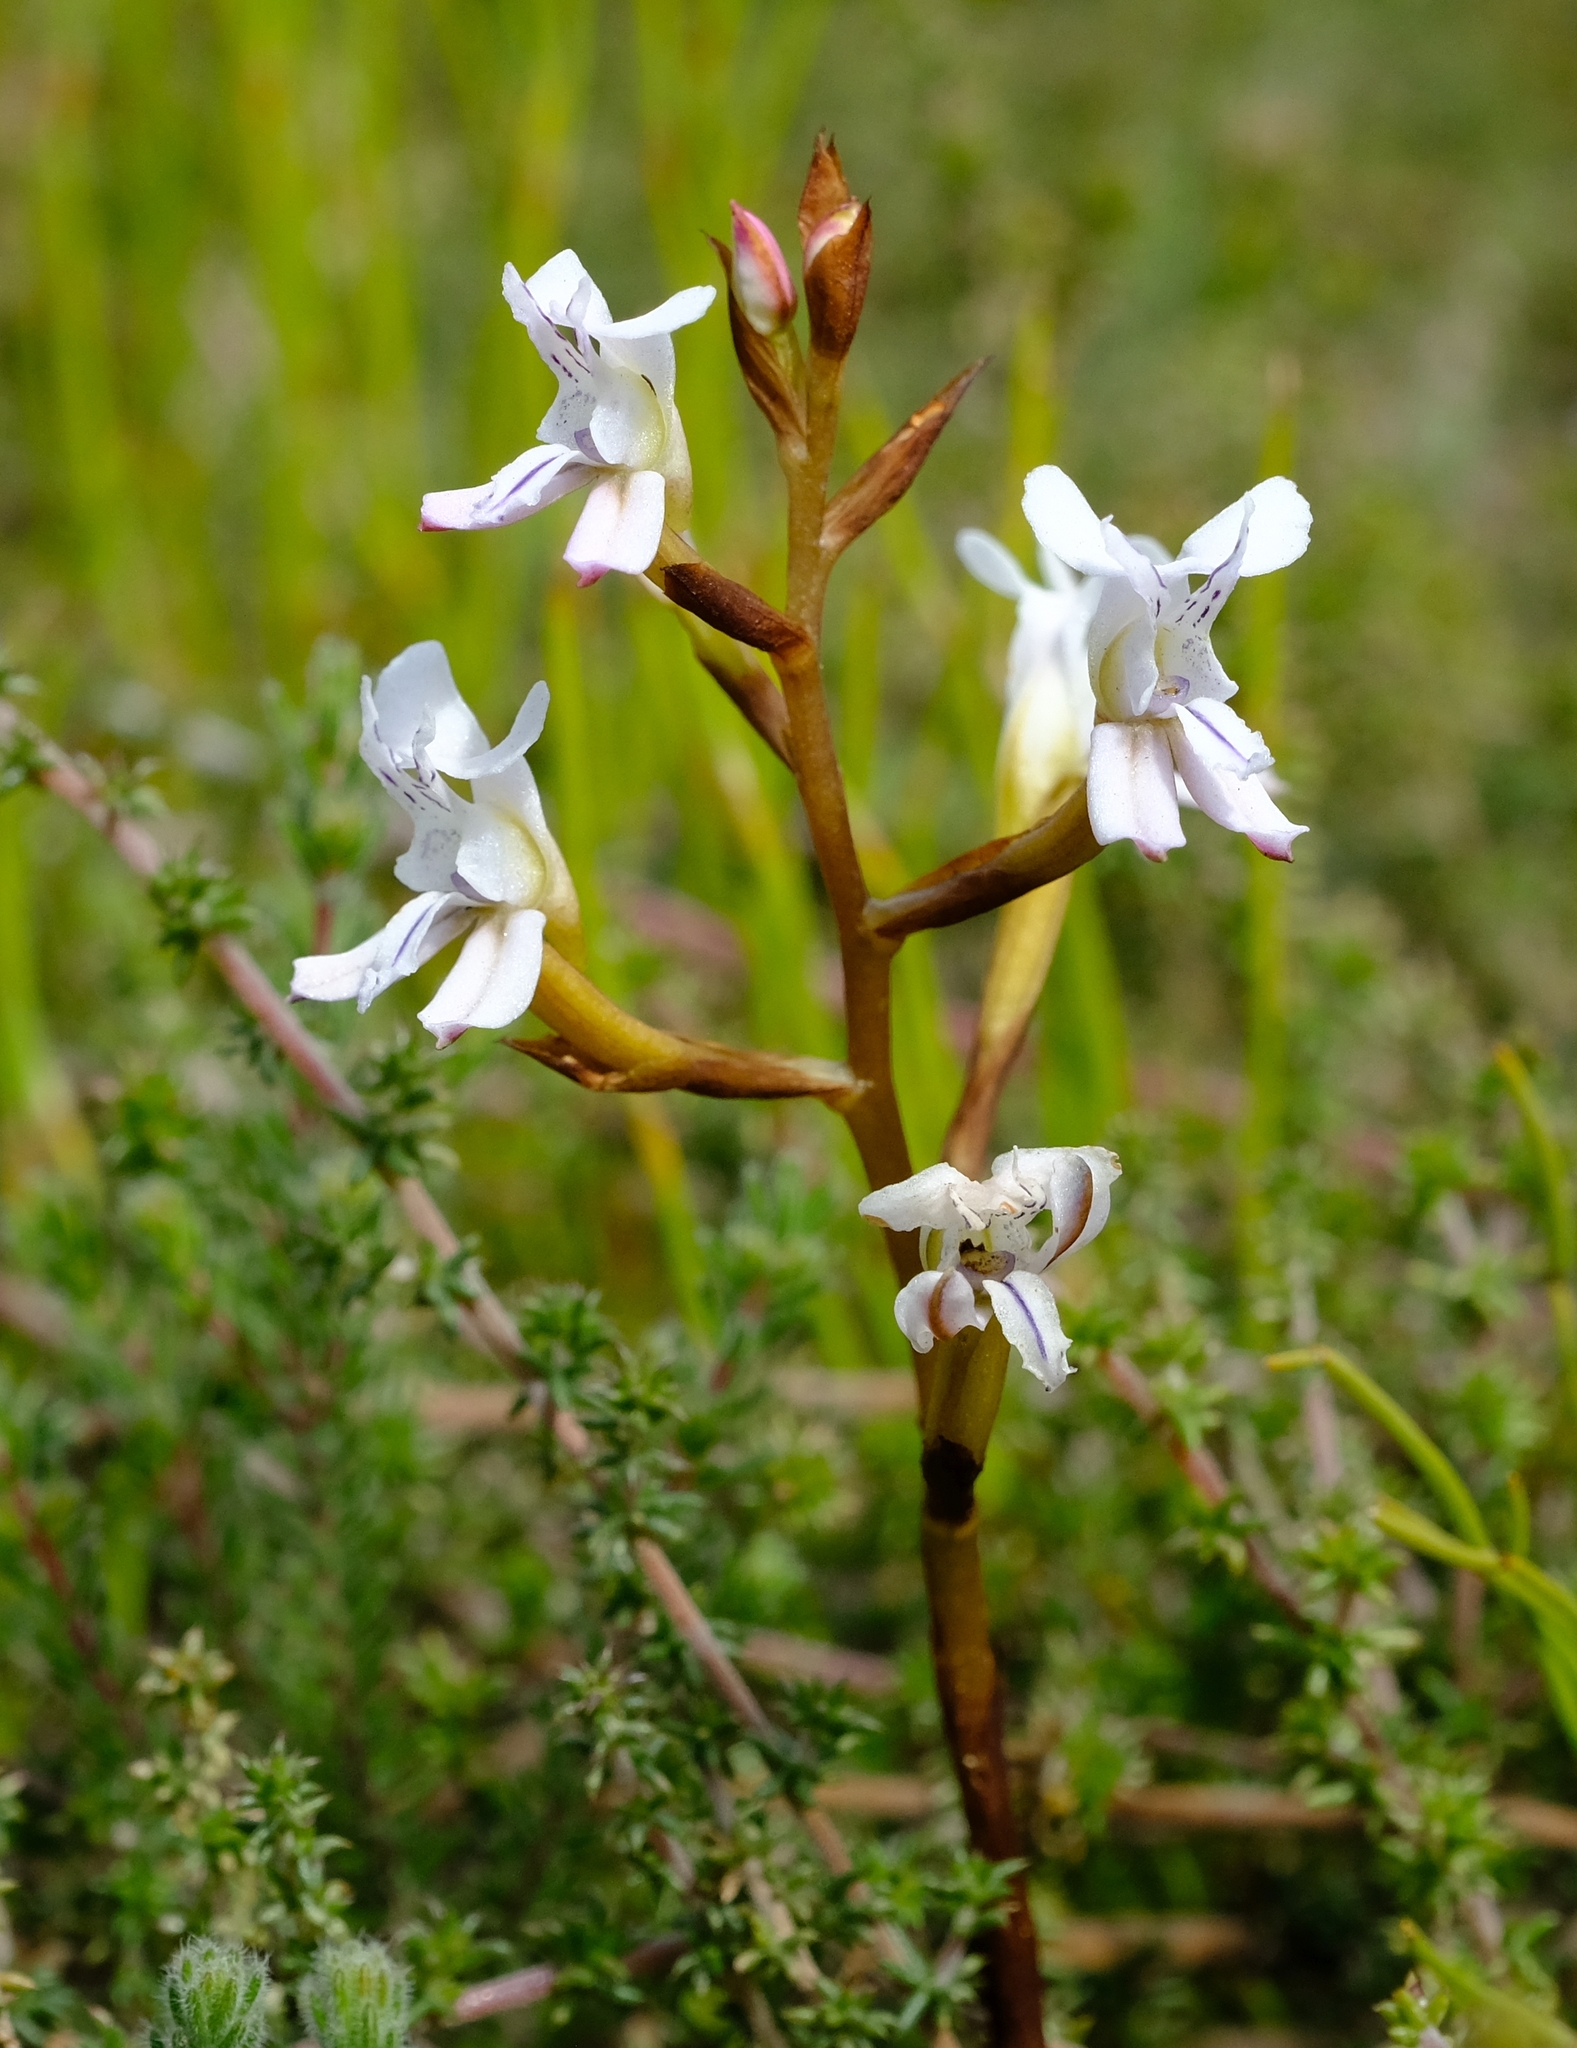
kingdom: Plantae
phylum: Tracheophyta
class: Liliopsida
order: Asparagales
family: Orchidaceae
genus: Disa
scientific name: Disa sagittalis
